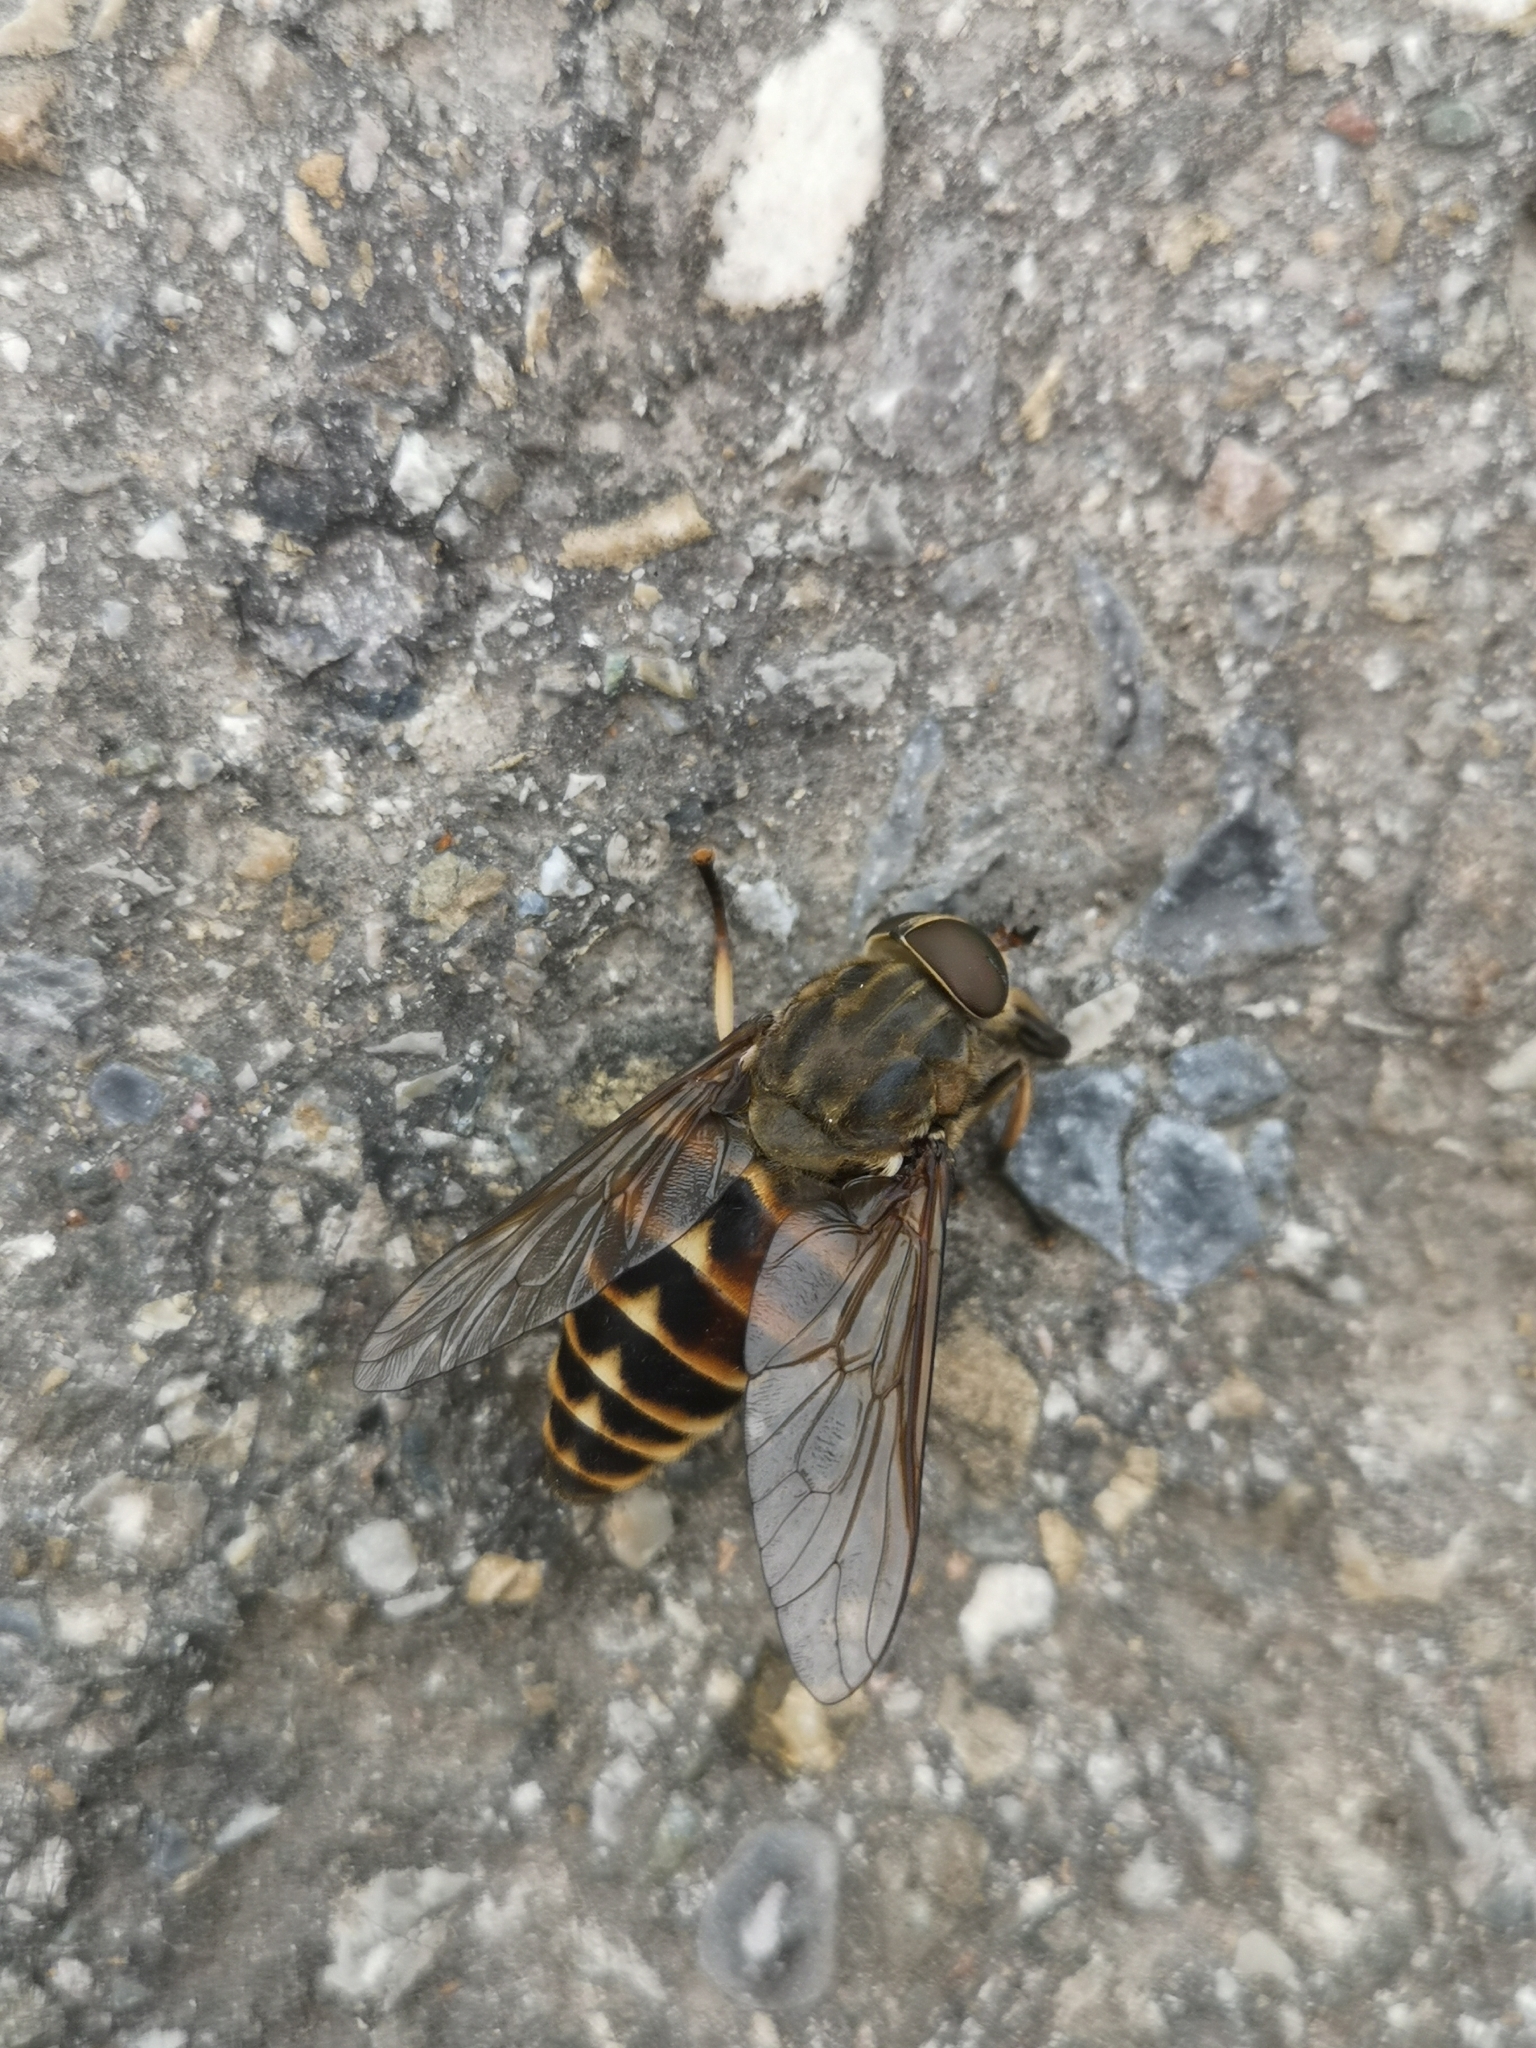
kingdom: Animalia
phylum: Arthropoda
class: Insecta
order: Diptera
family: Tabanidae
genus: Tabanus
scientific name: Tabanus sudeticus
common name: Dark giant horsefly
